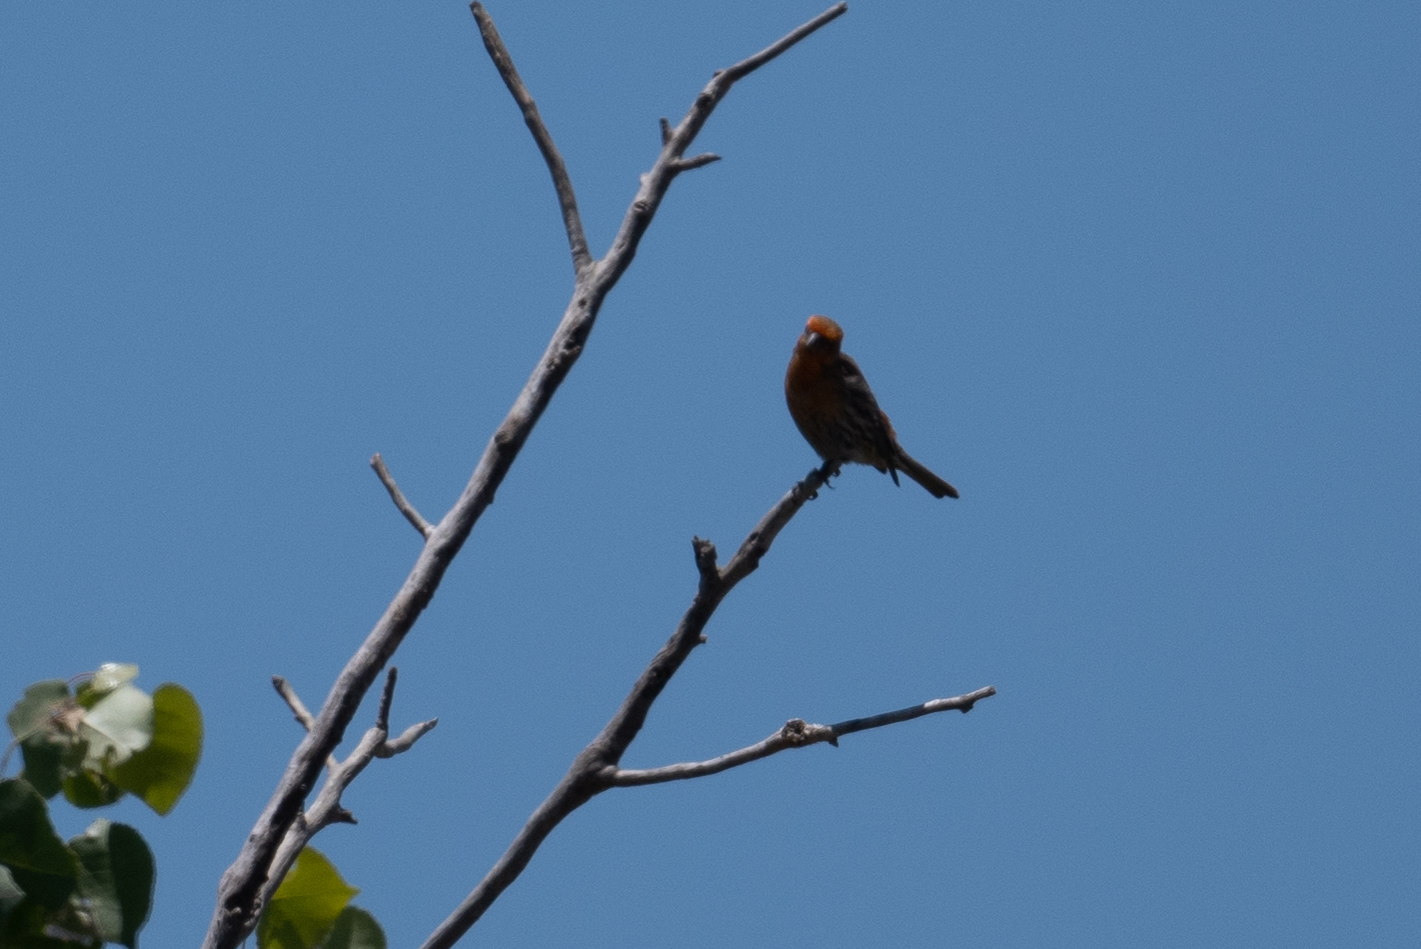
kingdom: Animalia
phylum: Chordata
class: Aves
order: Passeriformes
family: Fringillidae
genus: Haemorhous
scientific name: Haemorhous mexicanus
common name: House finch
